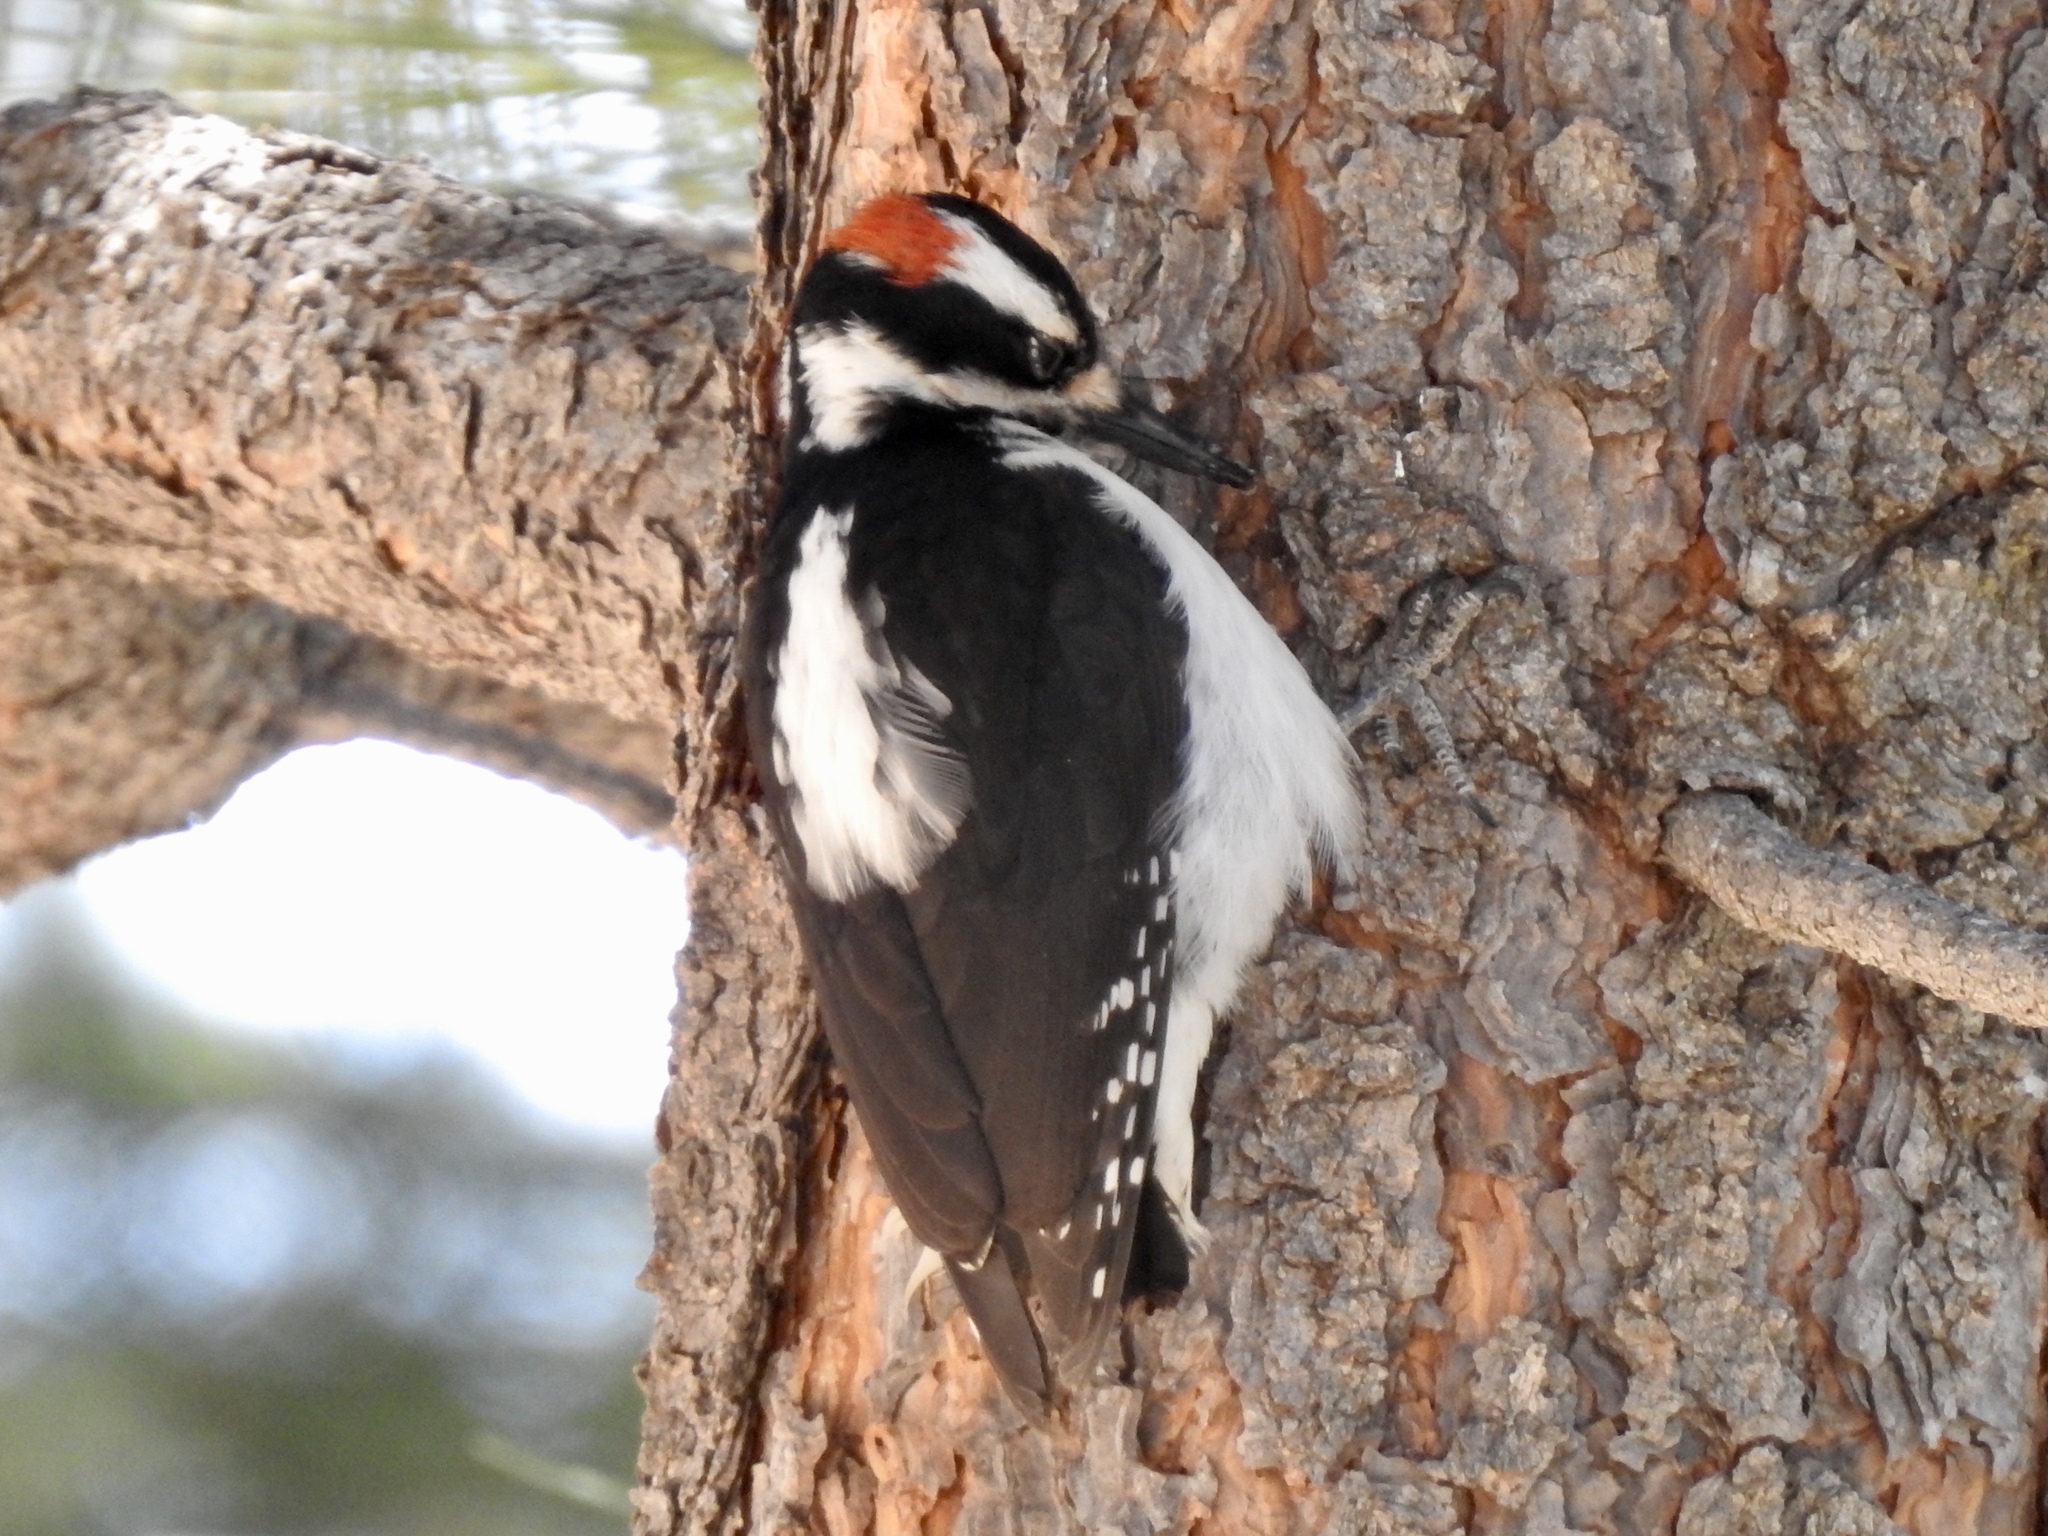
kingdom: Animalia
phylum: Chordata
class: Aves
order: Piciformes
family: Picidae
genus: Leuconotopicus
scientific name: Leuconotopicus villosus
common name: Hairy woodpecker
